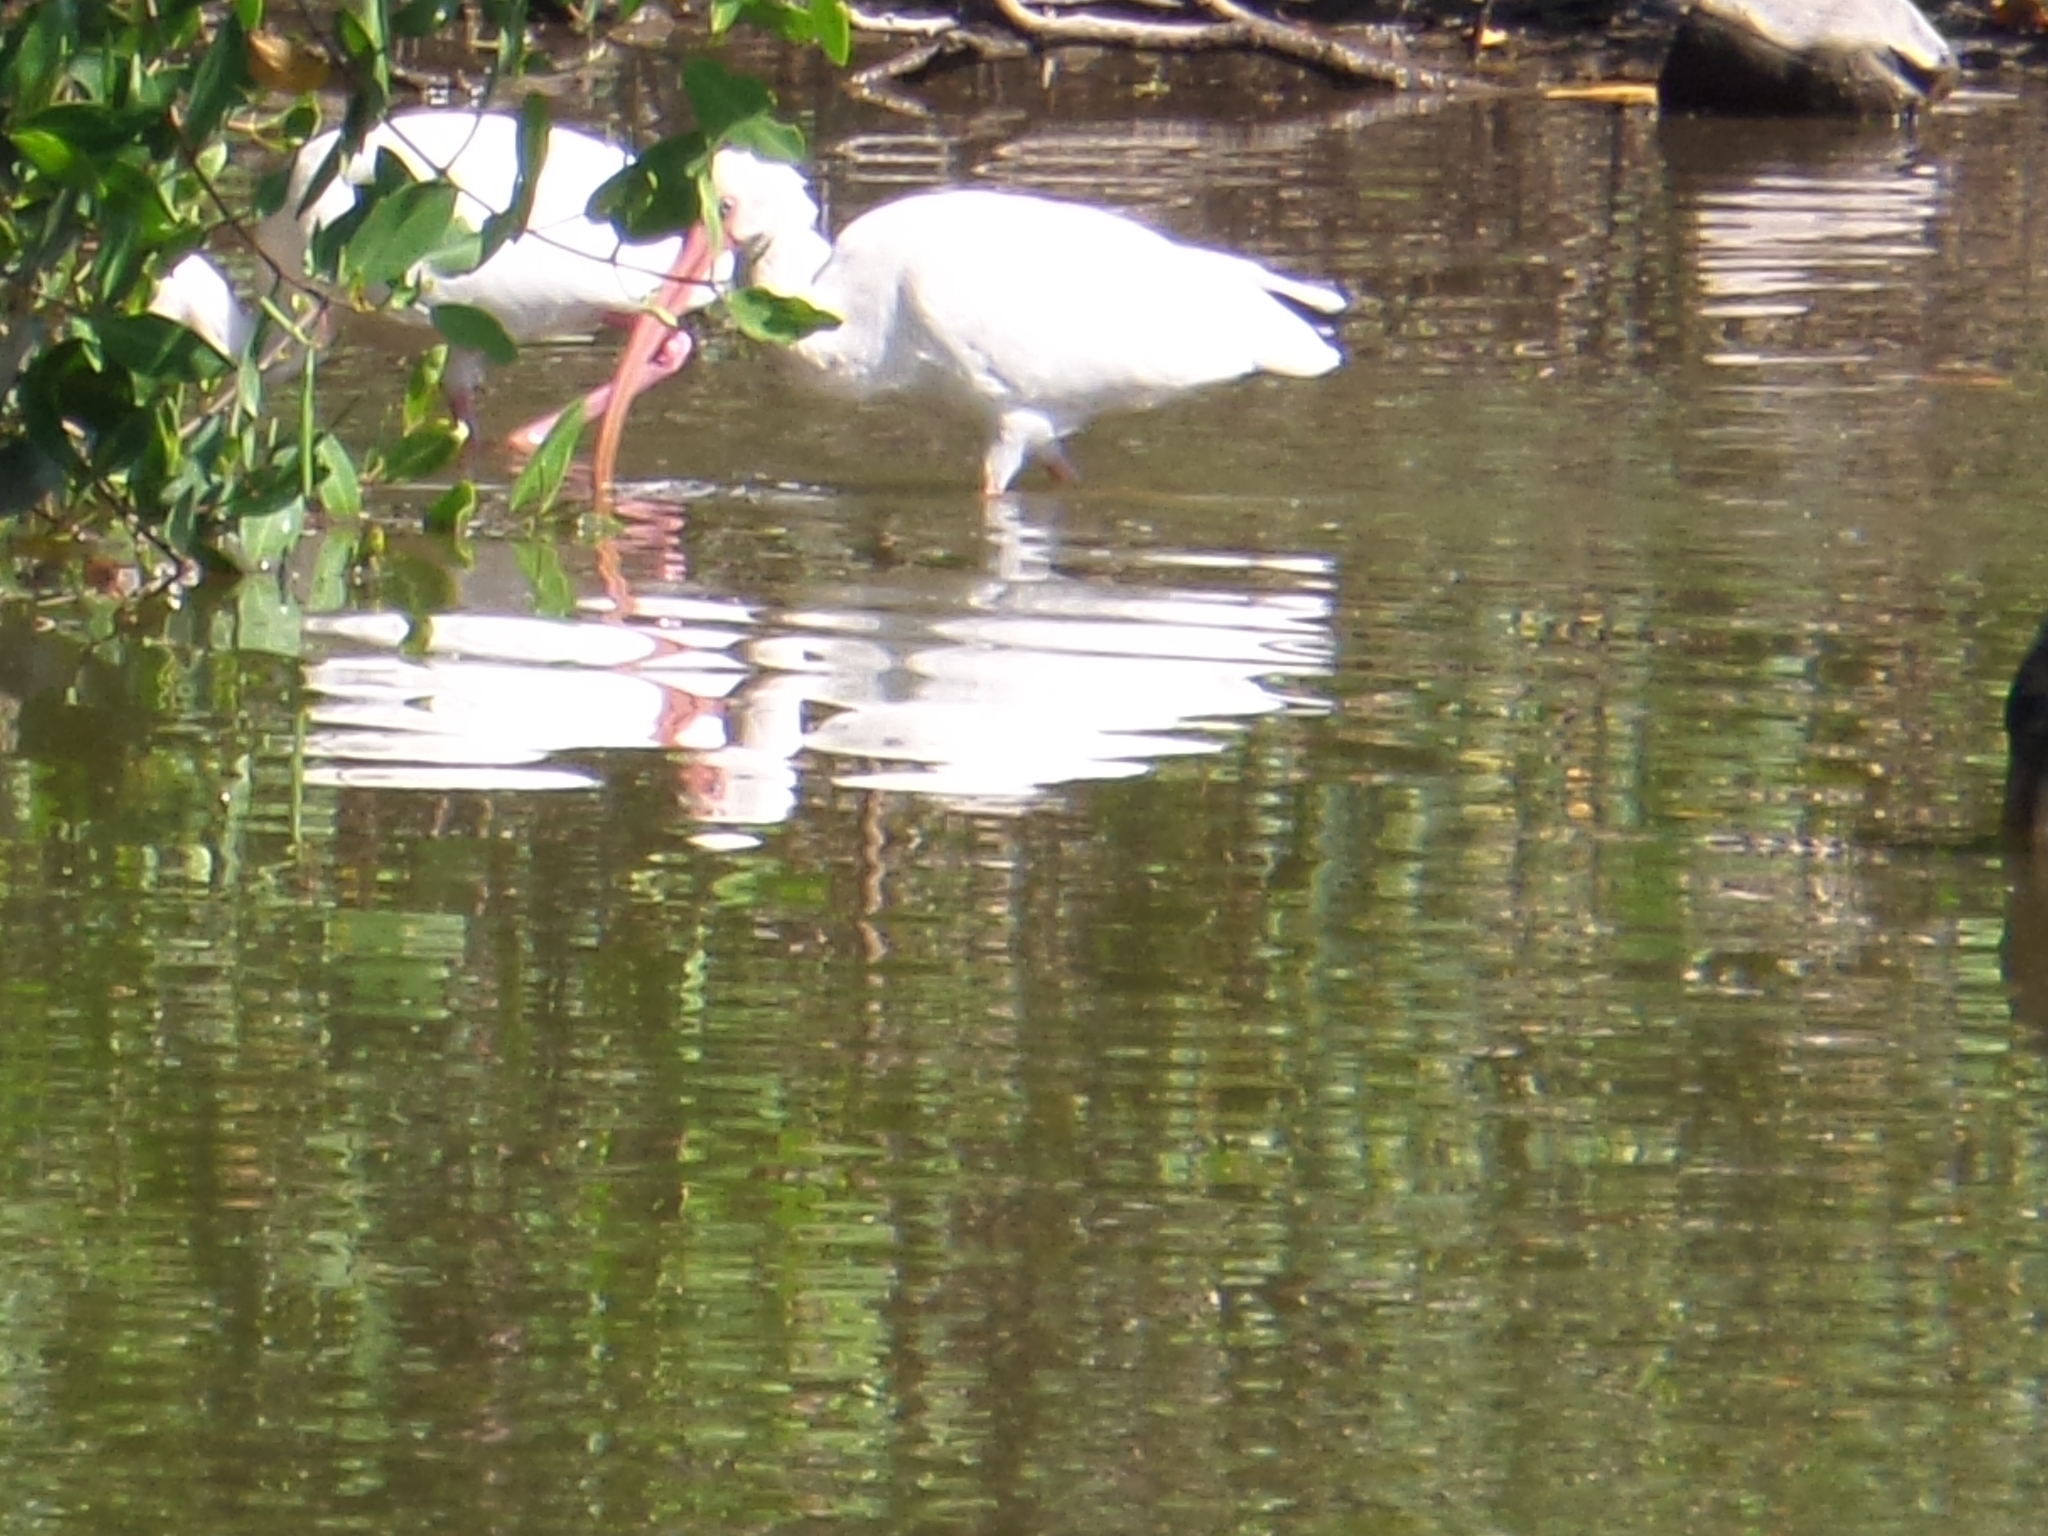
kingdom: Animalia
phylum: Chordata
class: Aves
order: Pelecaniformes
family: Threskiornithidae
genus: Eudocimus
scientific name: Eudocimus albus
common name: White ibis
